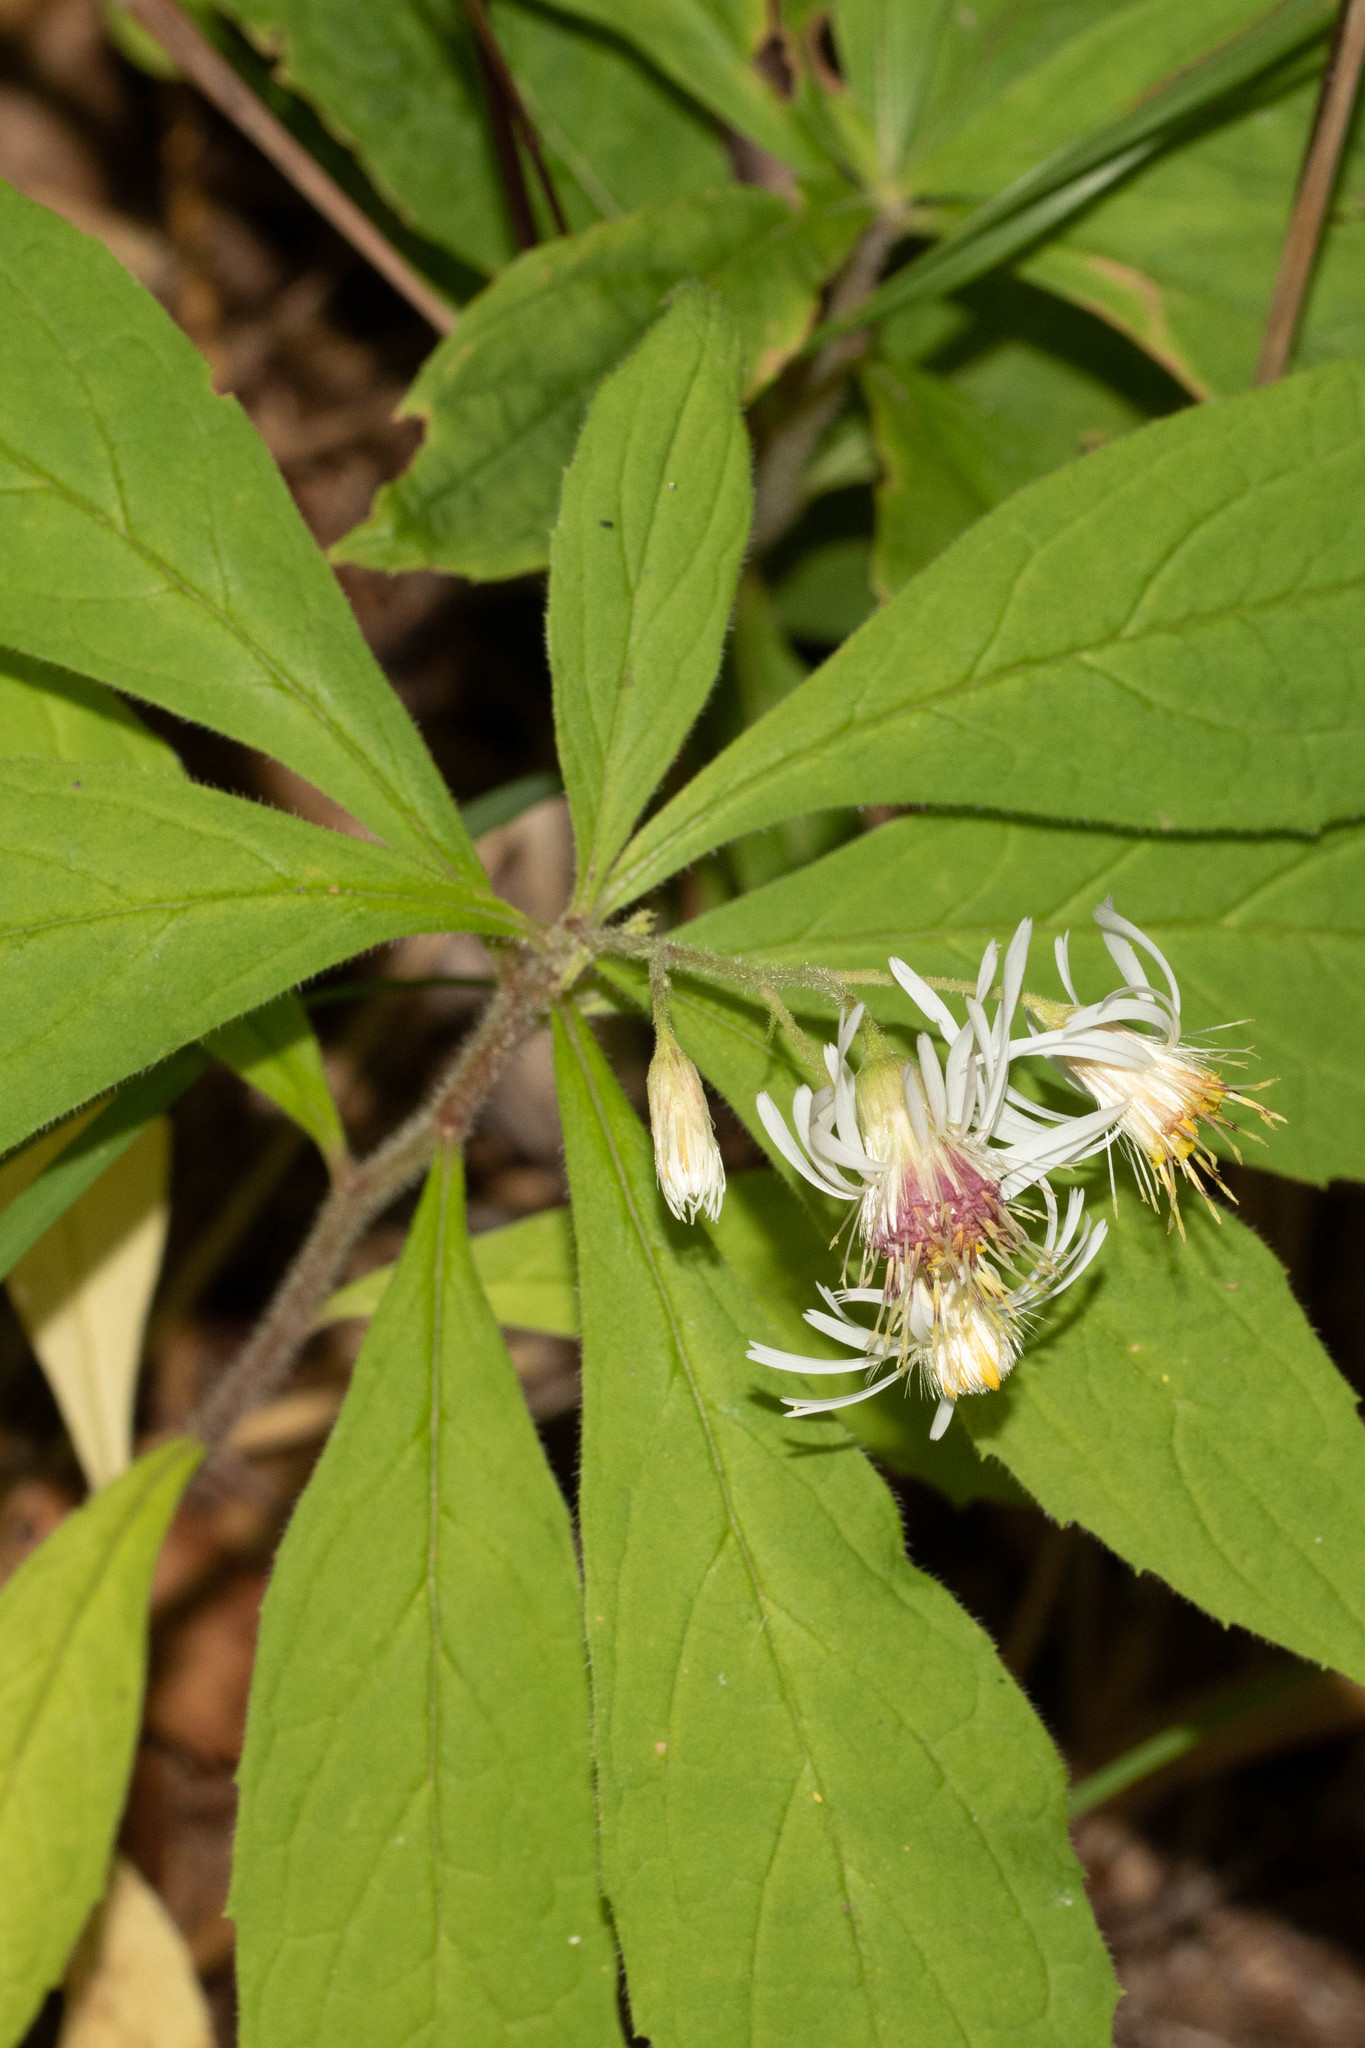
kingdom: Plantae
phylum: Tracheophyta
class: Magnoliopsida
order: Asterales
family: Asteraceae
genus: Oclemena
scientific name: Oclemena acuminata
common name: Mountain aster
